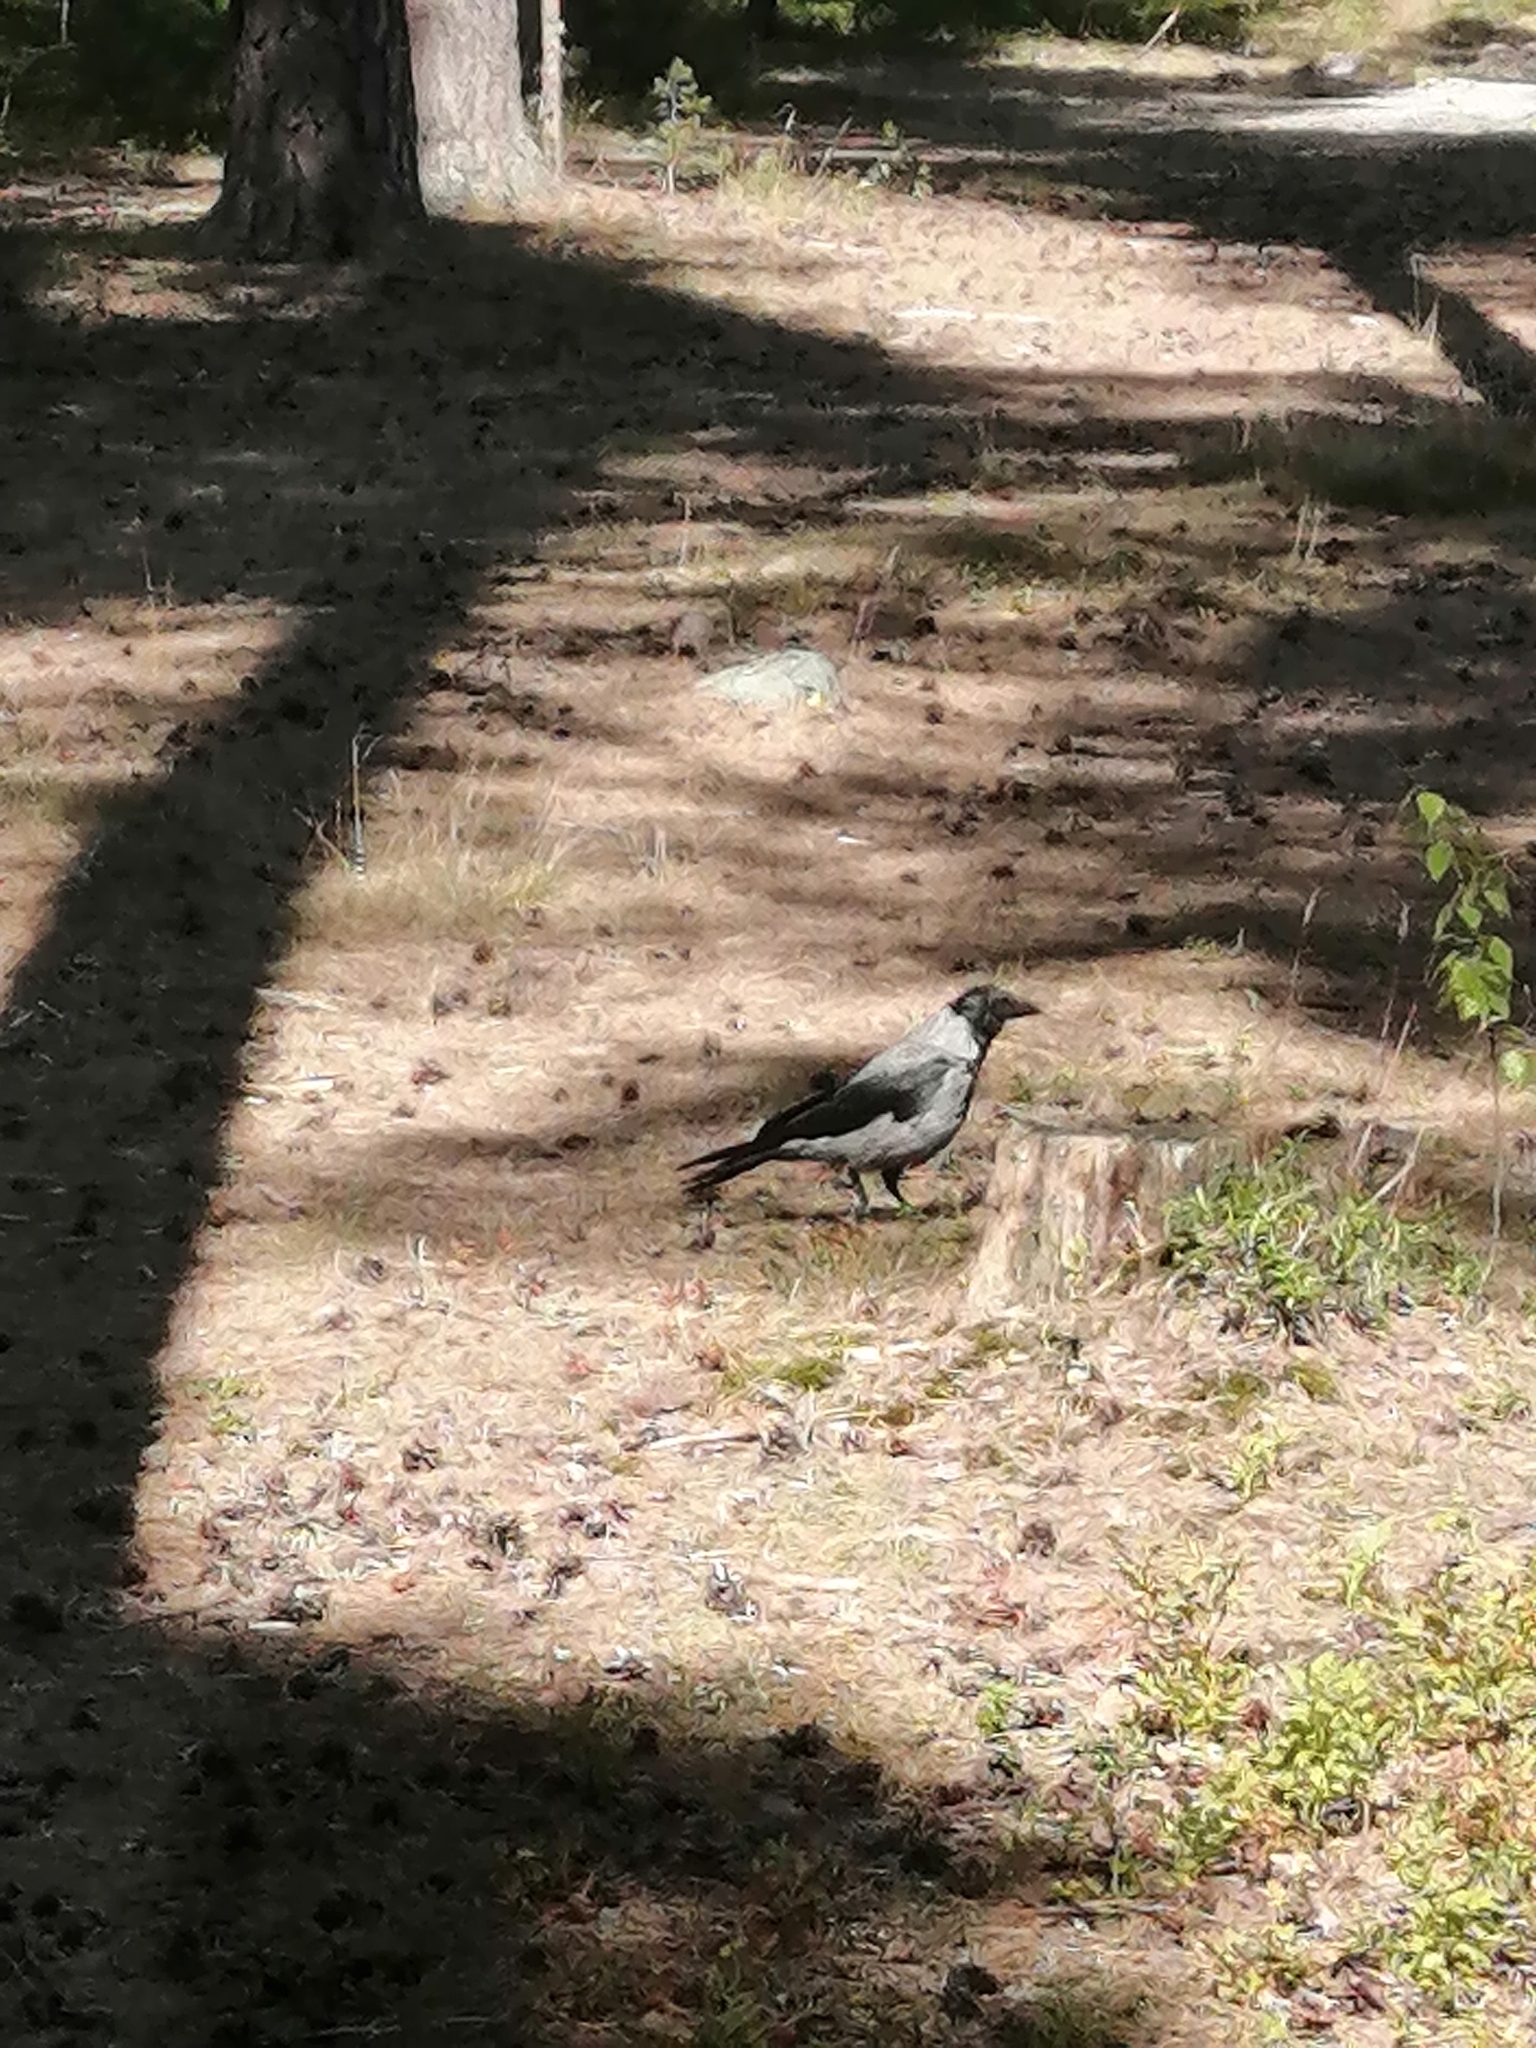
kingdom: Animalia
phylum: Chordata
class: Aves
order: Passeriformes
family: Corvidae
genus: Corvus
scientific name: Corvus cornix
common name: Hooded crow
